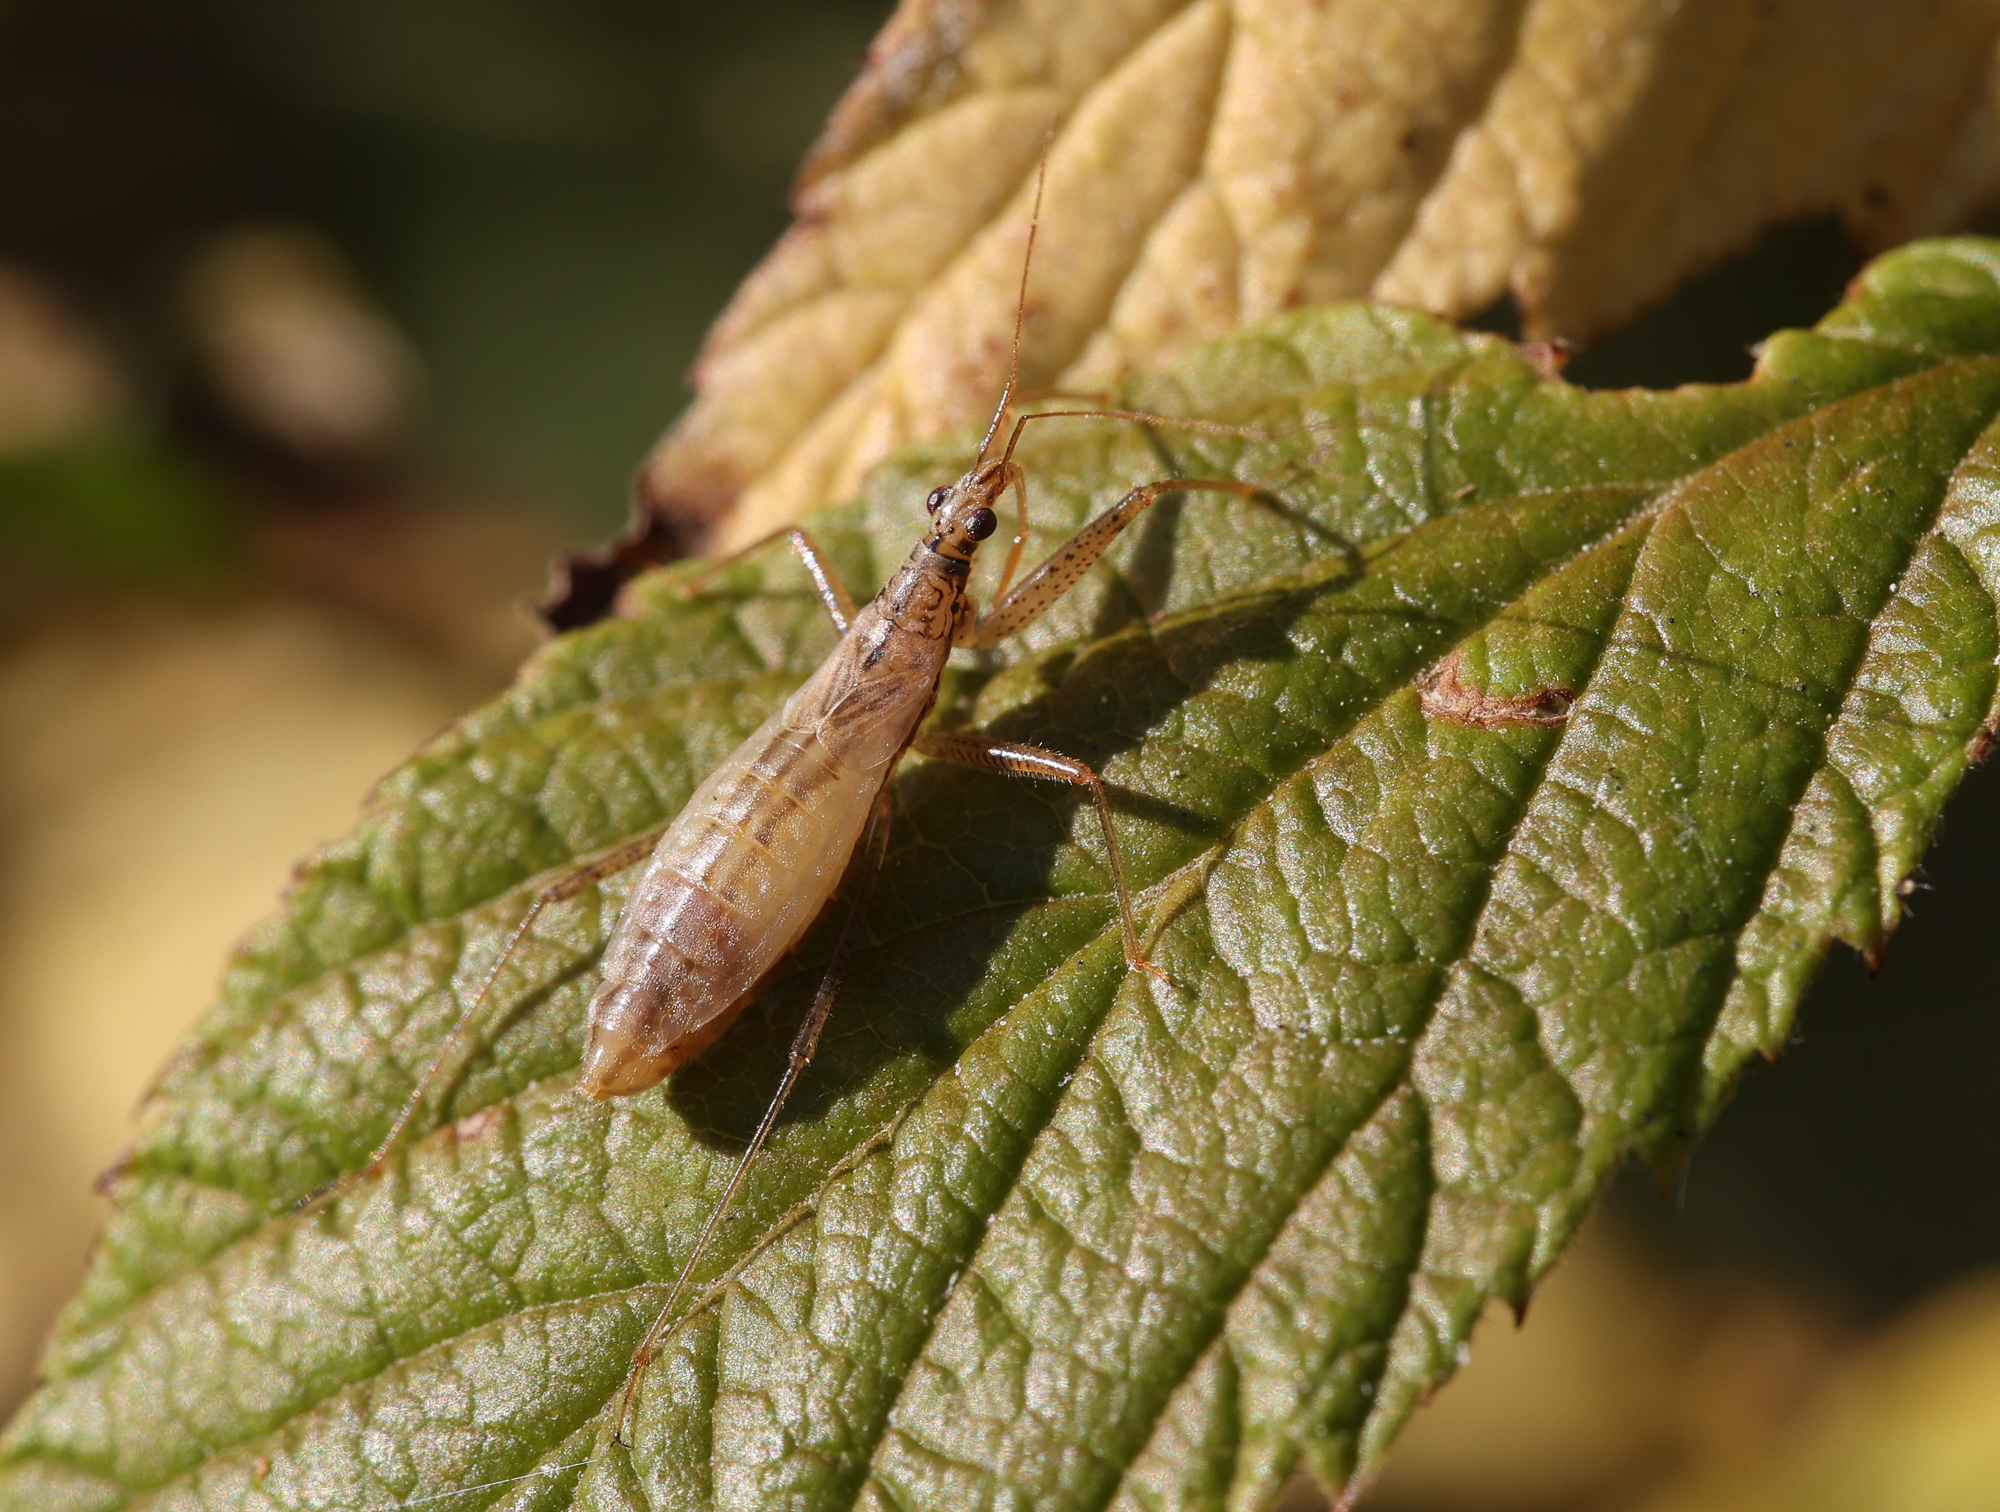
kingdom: Animalia
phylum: Arthropoda
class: Insecta
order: Hemiptera
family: Nabidae
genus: Nabis
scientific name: Nabis limbatus
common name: Marsh damselbug
